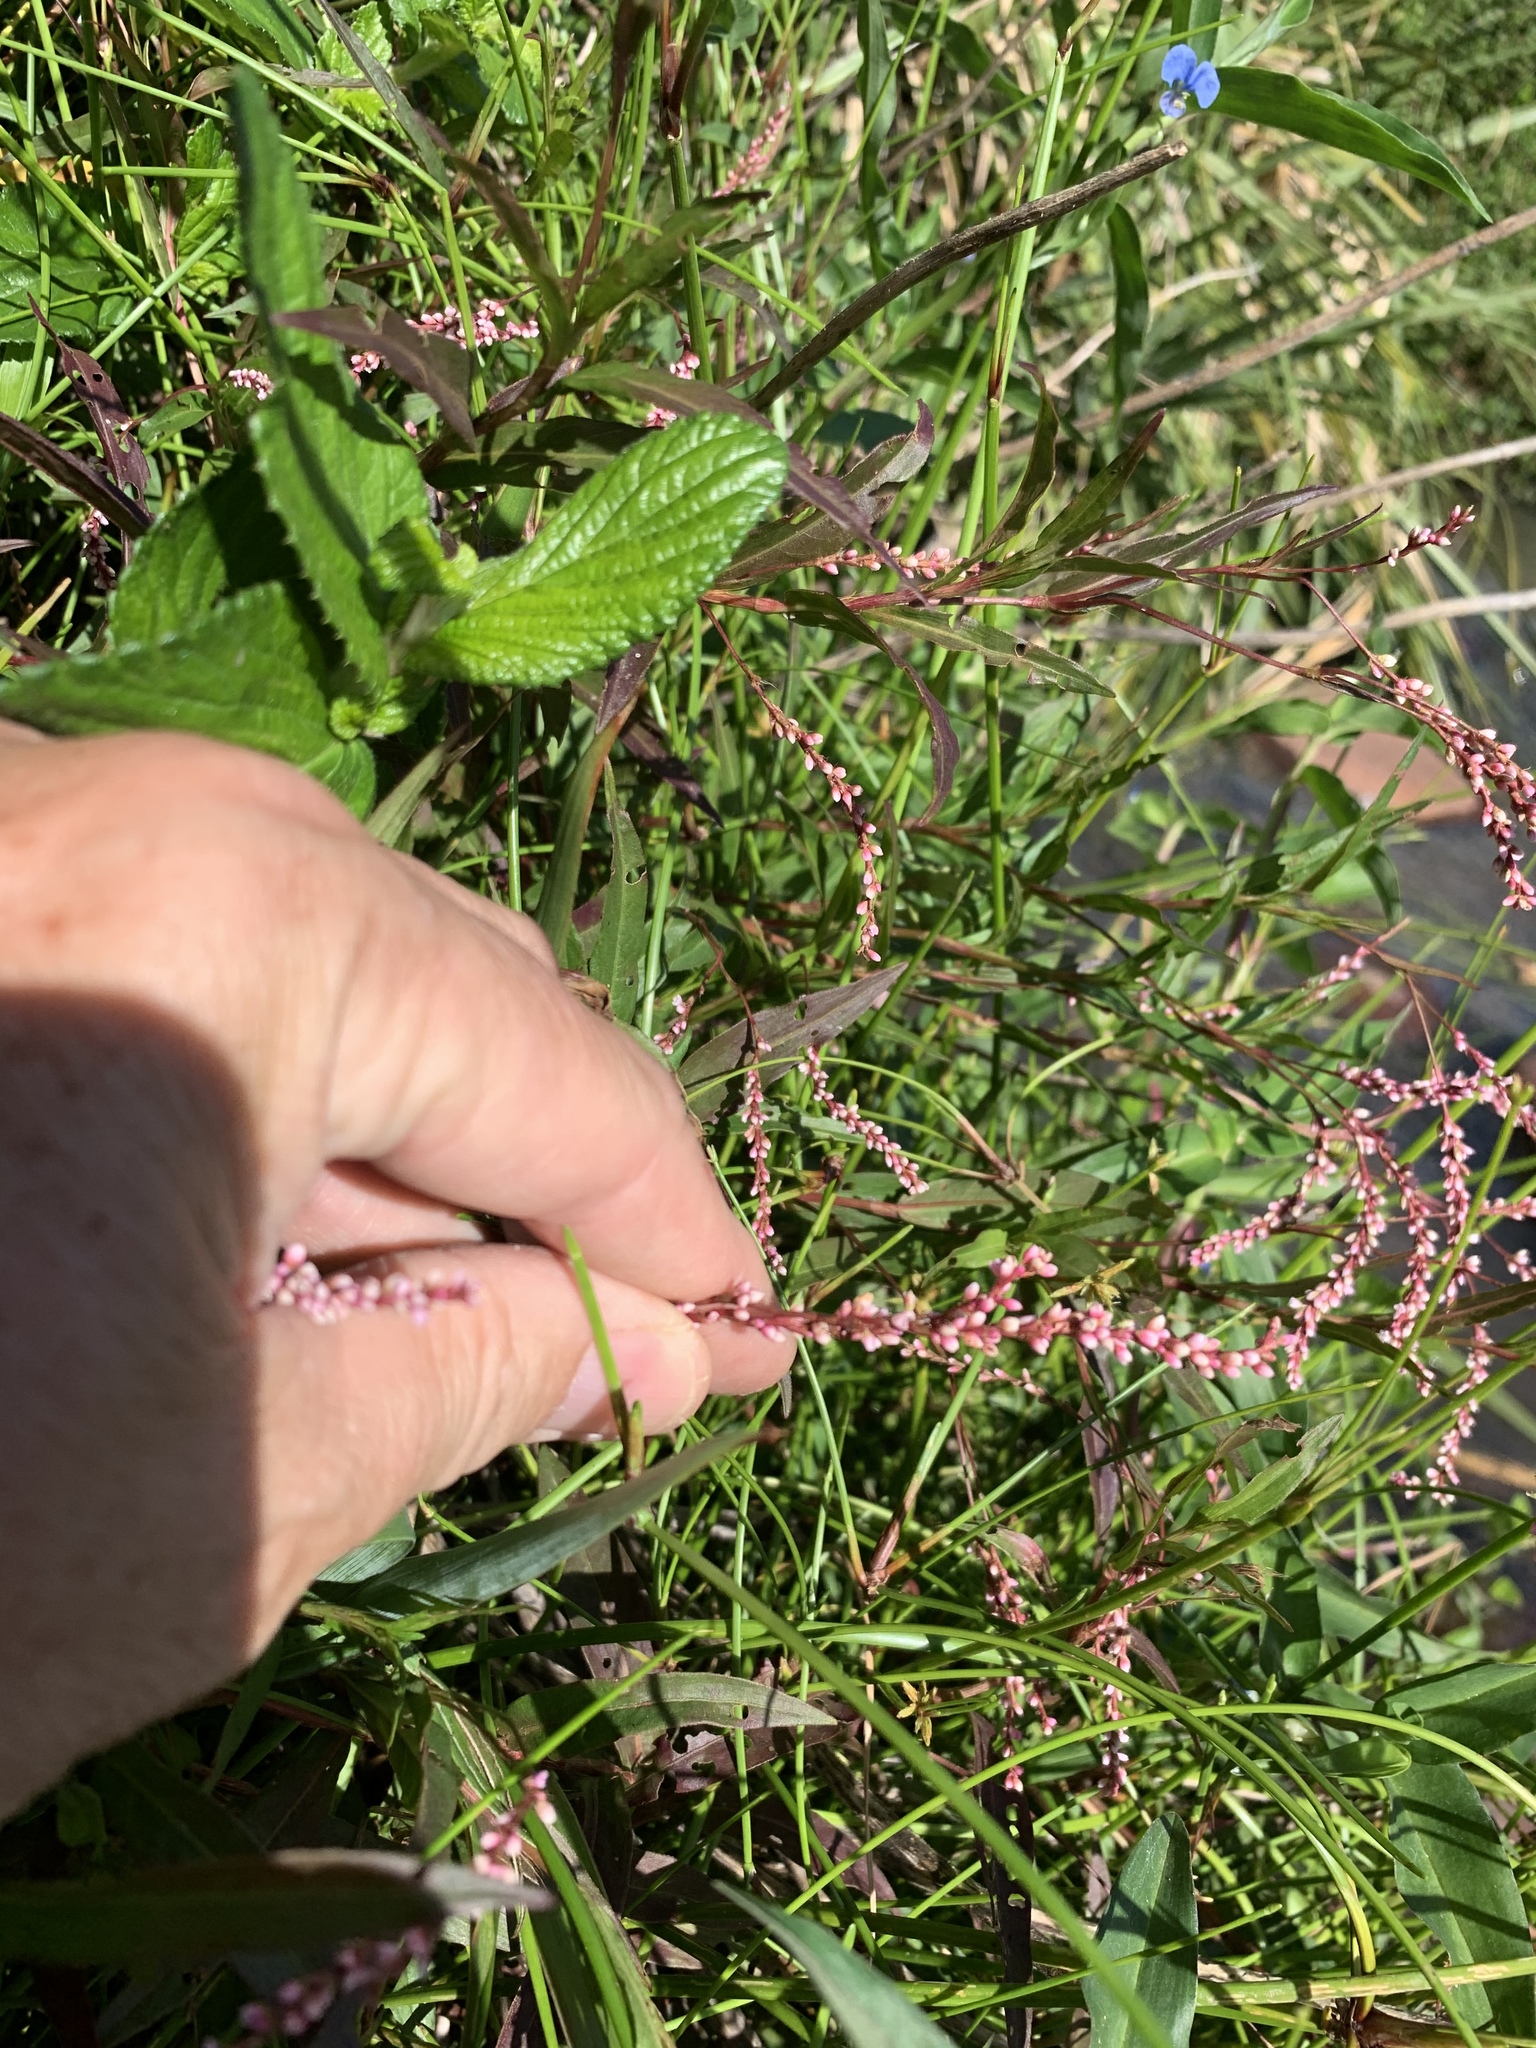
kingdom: Plantae
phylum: Tracheophyta
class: Magnoliopsida
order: Caryophyllales
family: Polygonaceae
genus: Persicaria
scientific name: Persicaria decipiens
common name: Willow-weed
